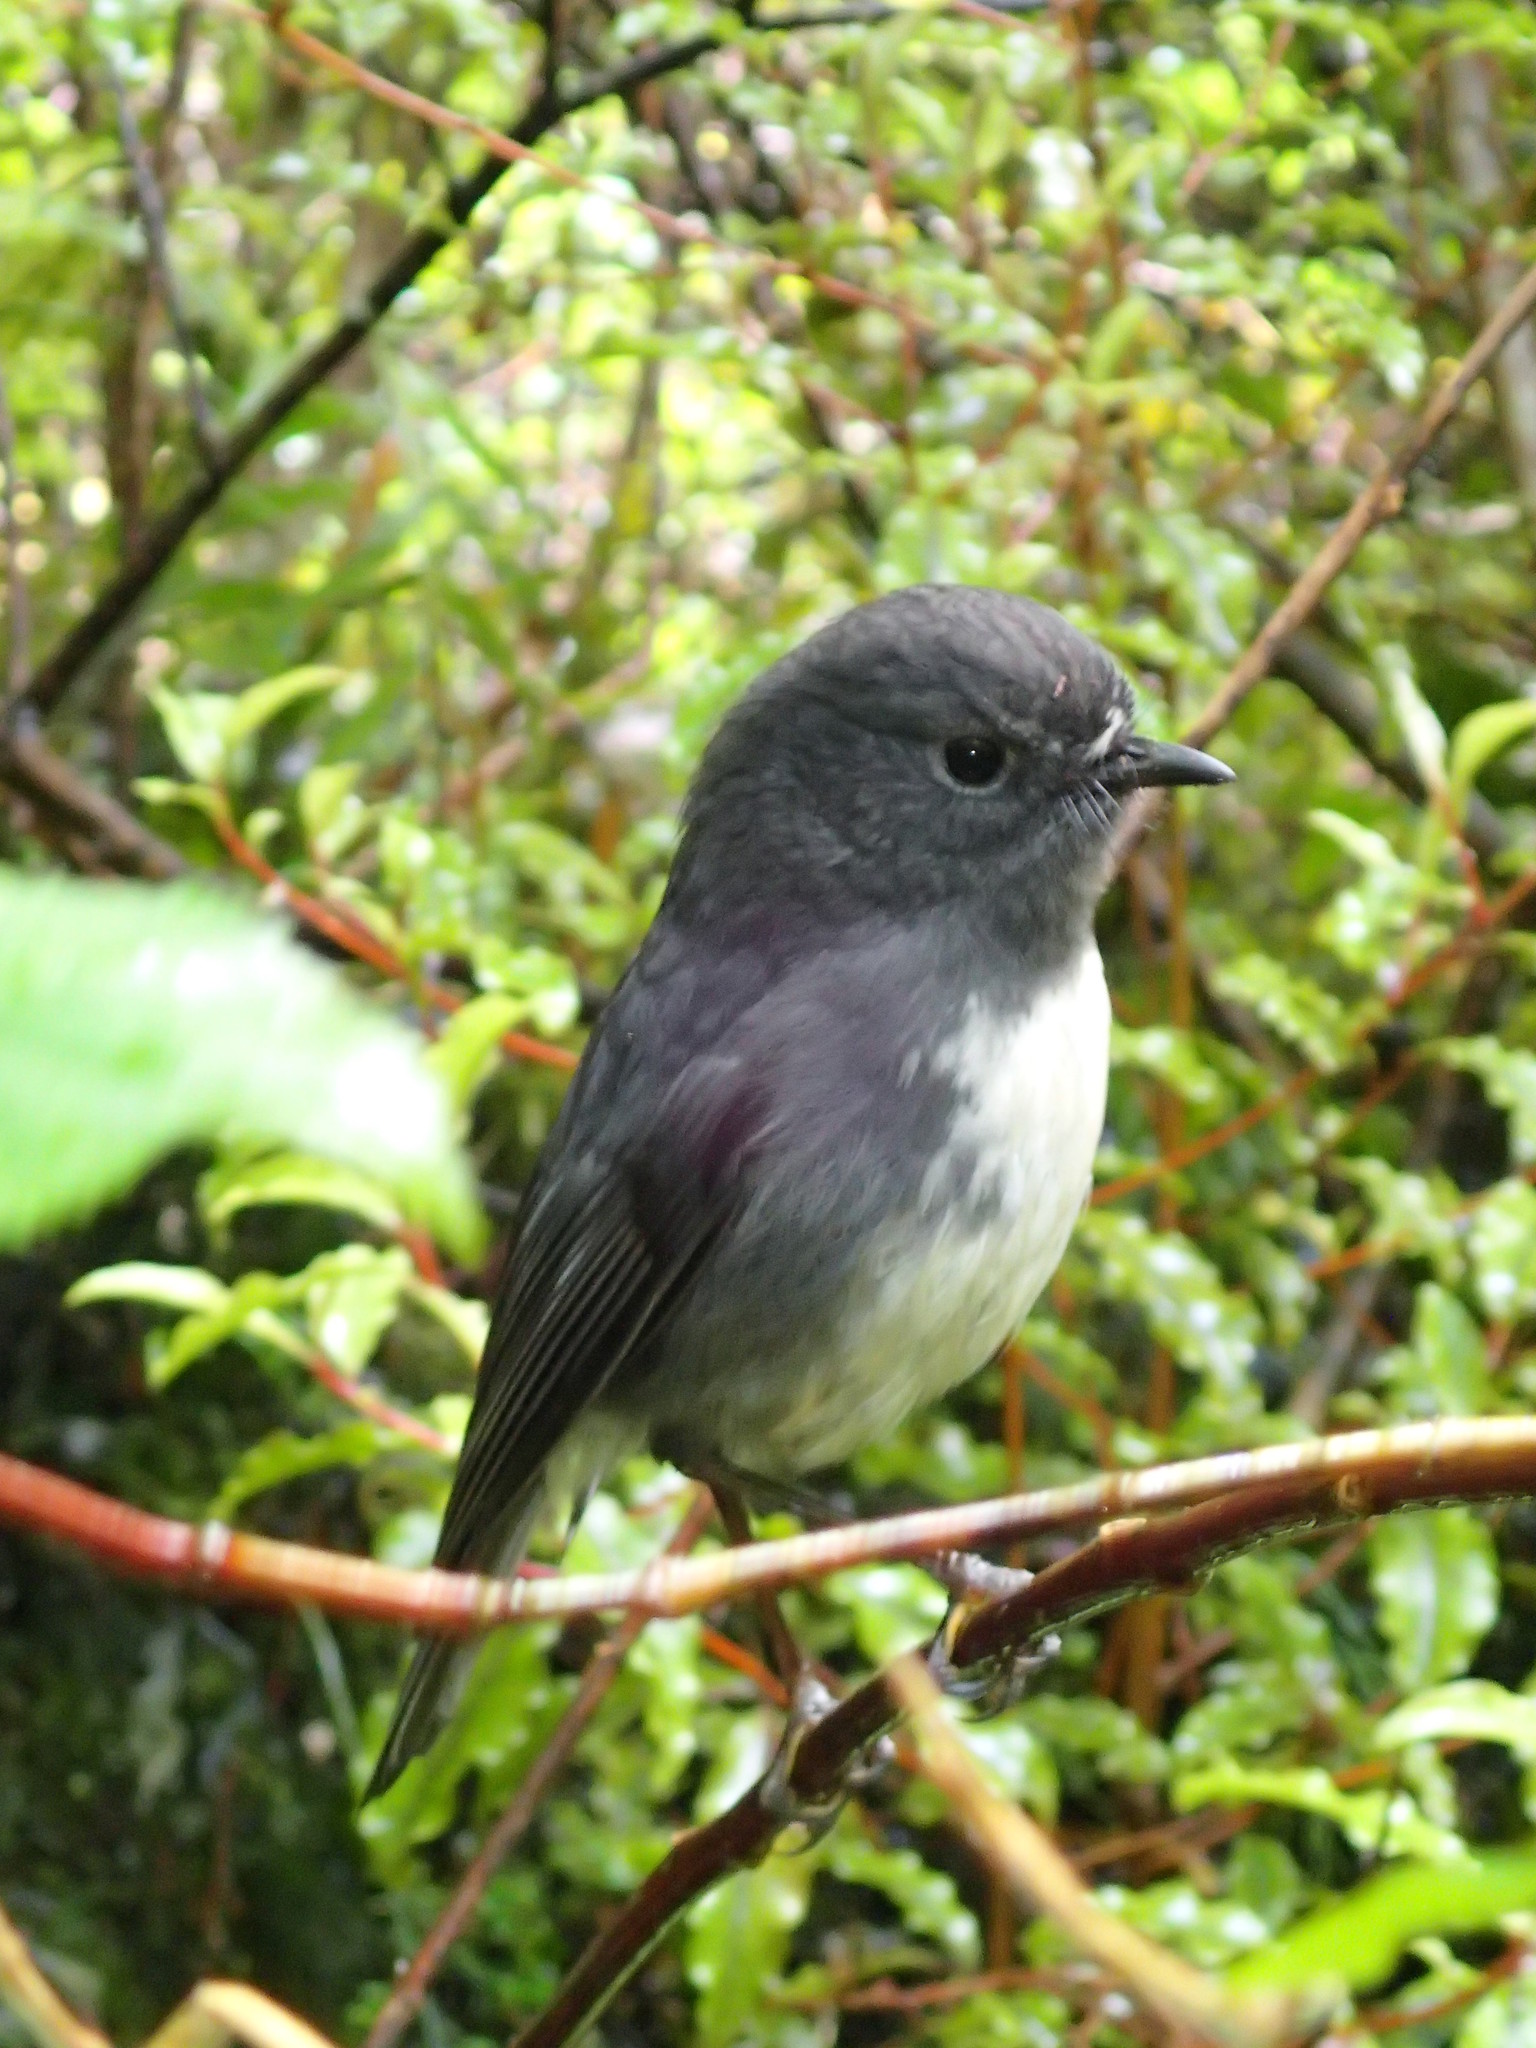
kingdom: Animalia
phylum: Chordata
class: Aves
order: Passeriformes
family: Petroicidae
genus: Petroica
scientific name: Petroica australis
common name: New zealand robin
